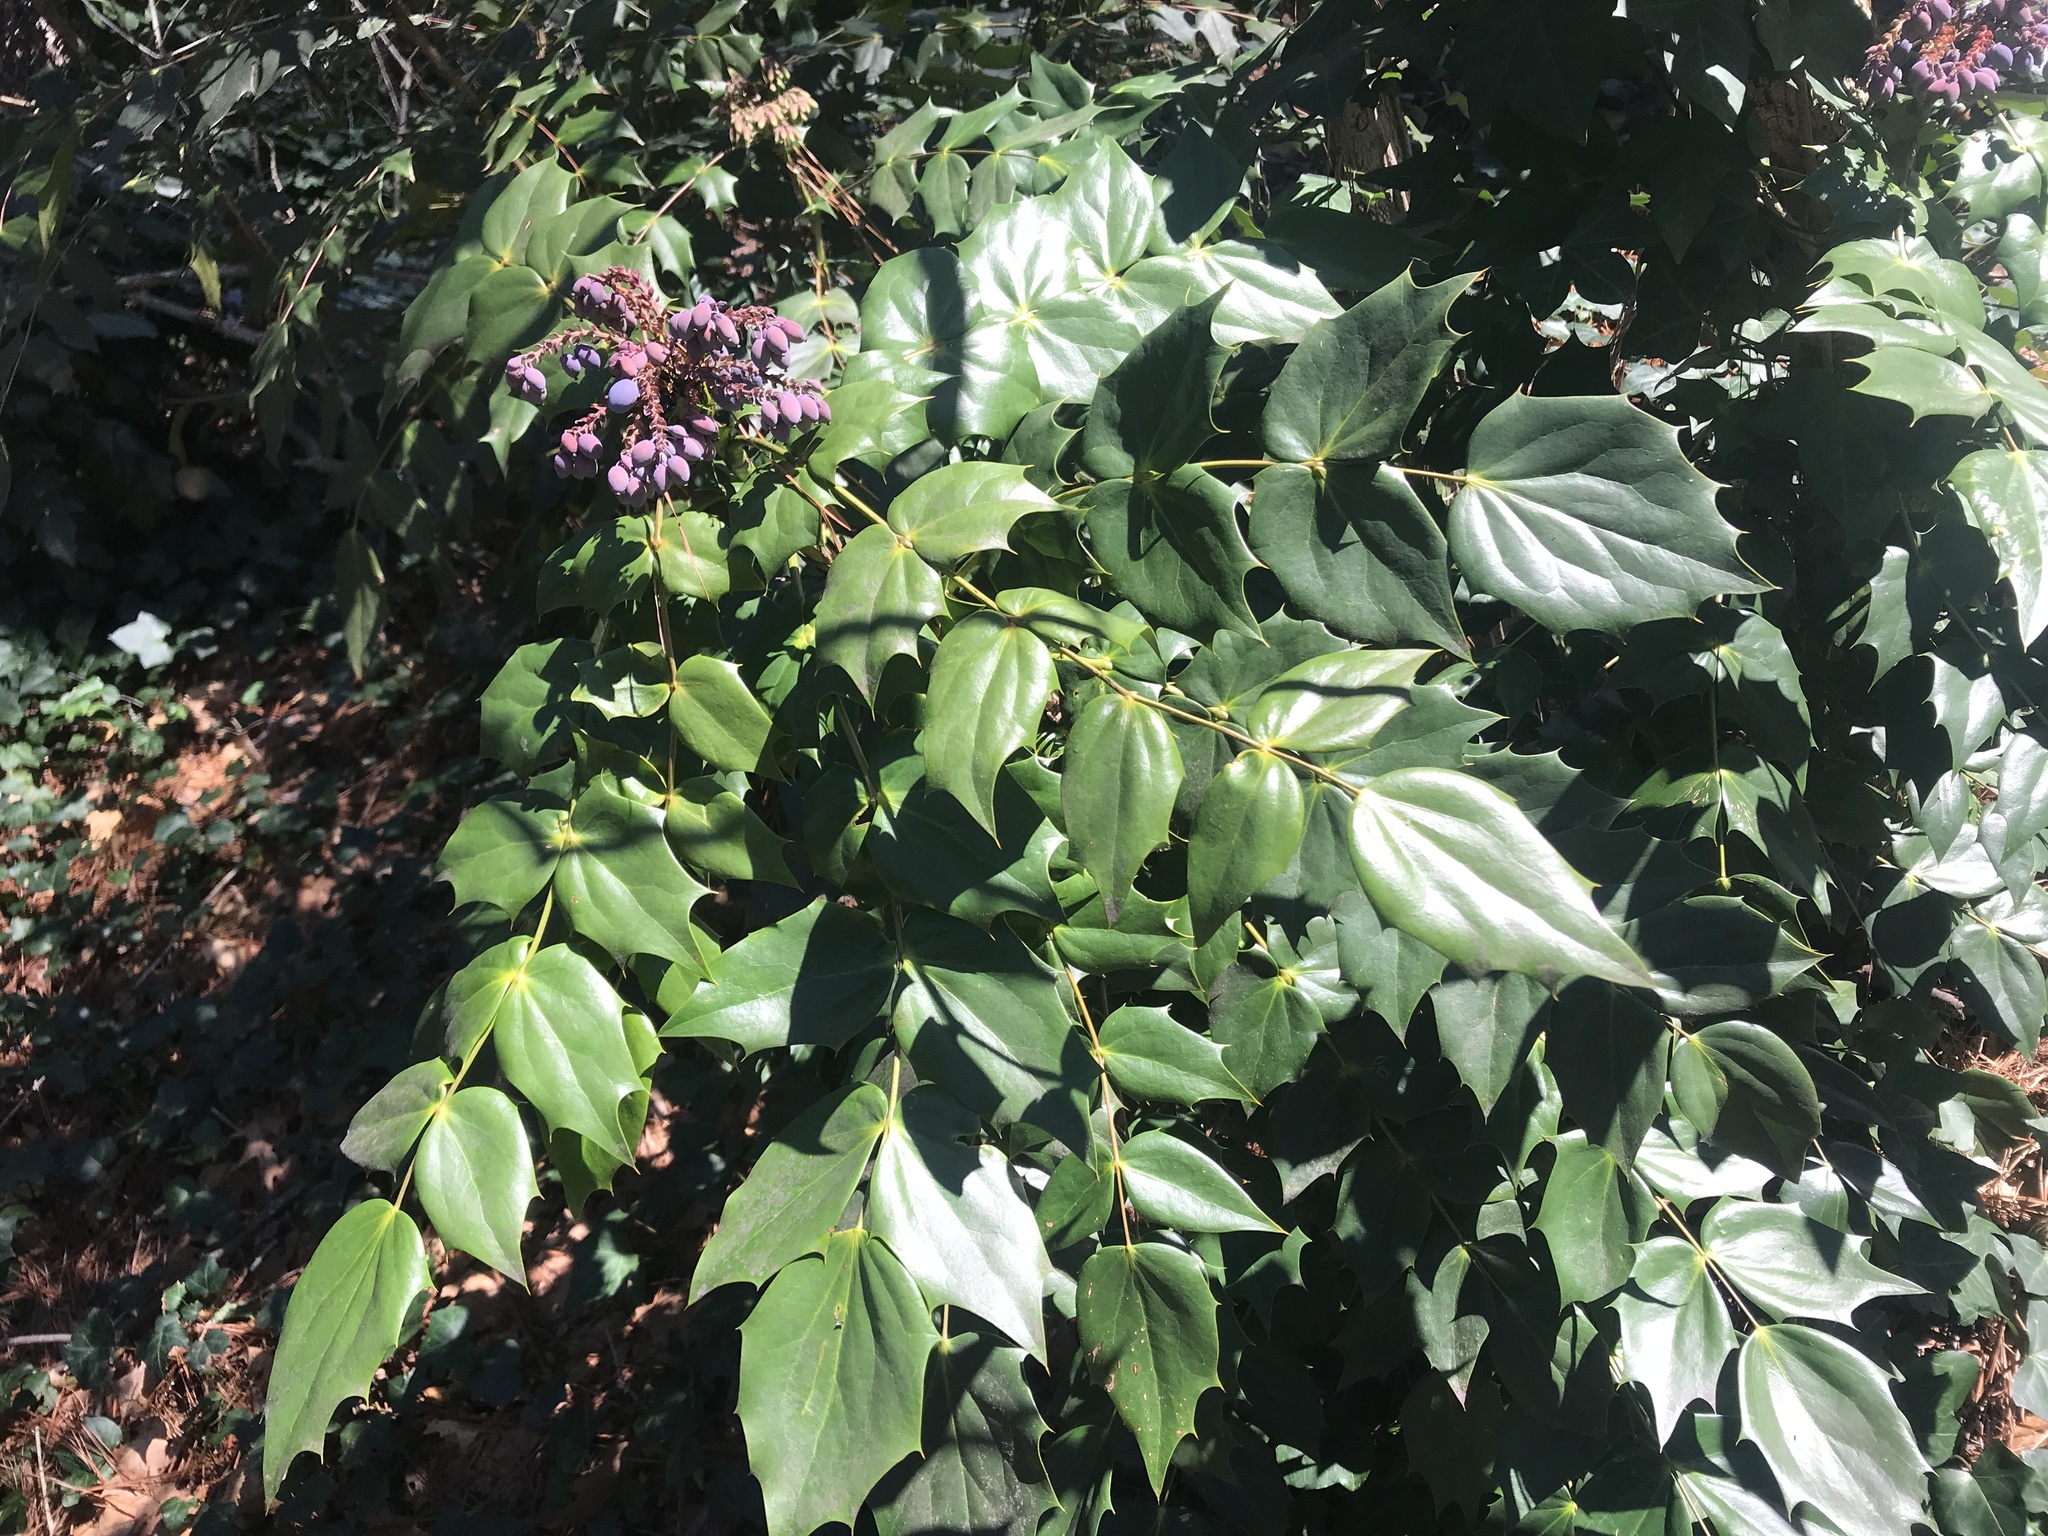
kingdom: Plantae
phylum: Tracheophyta
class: Magnoliopsida
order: Ranunculales
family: Berberidaceae
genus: Mahonia
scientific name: Mahonia bealei
